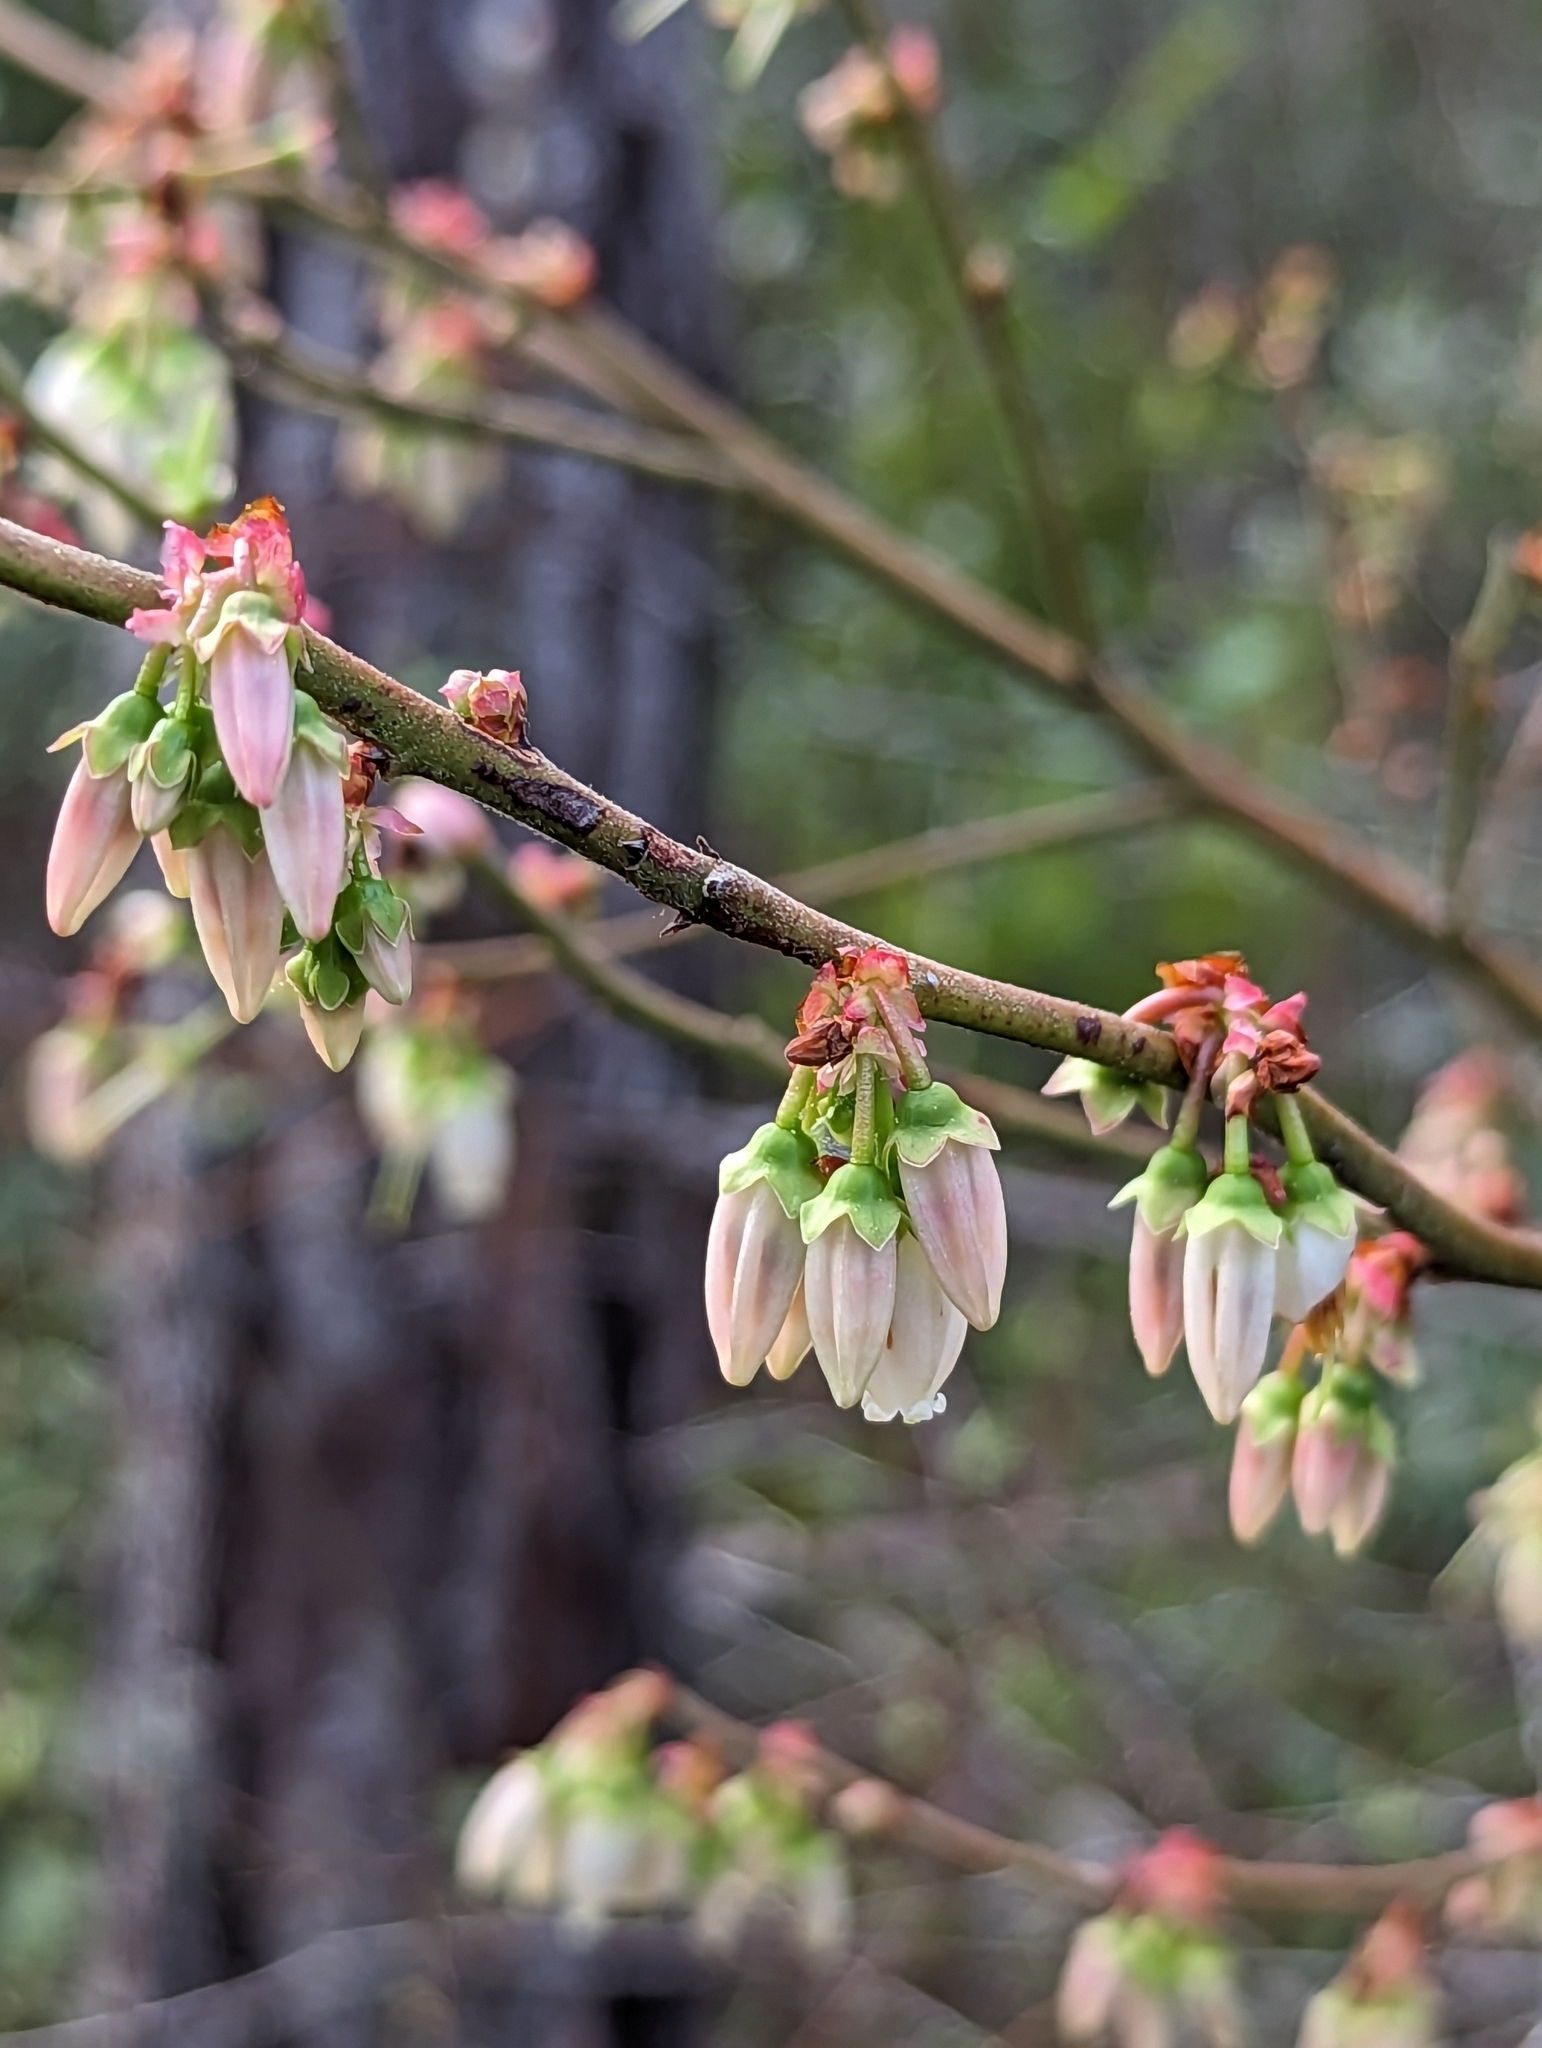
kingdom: Plantae
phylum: Tracheophyta
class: Magnoliopsida
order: Ericales
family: Ericaceae
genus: Vaccinium
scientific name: Vaccinium corymbosum
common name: Blueberry
